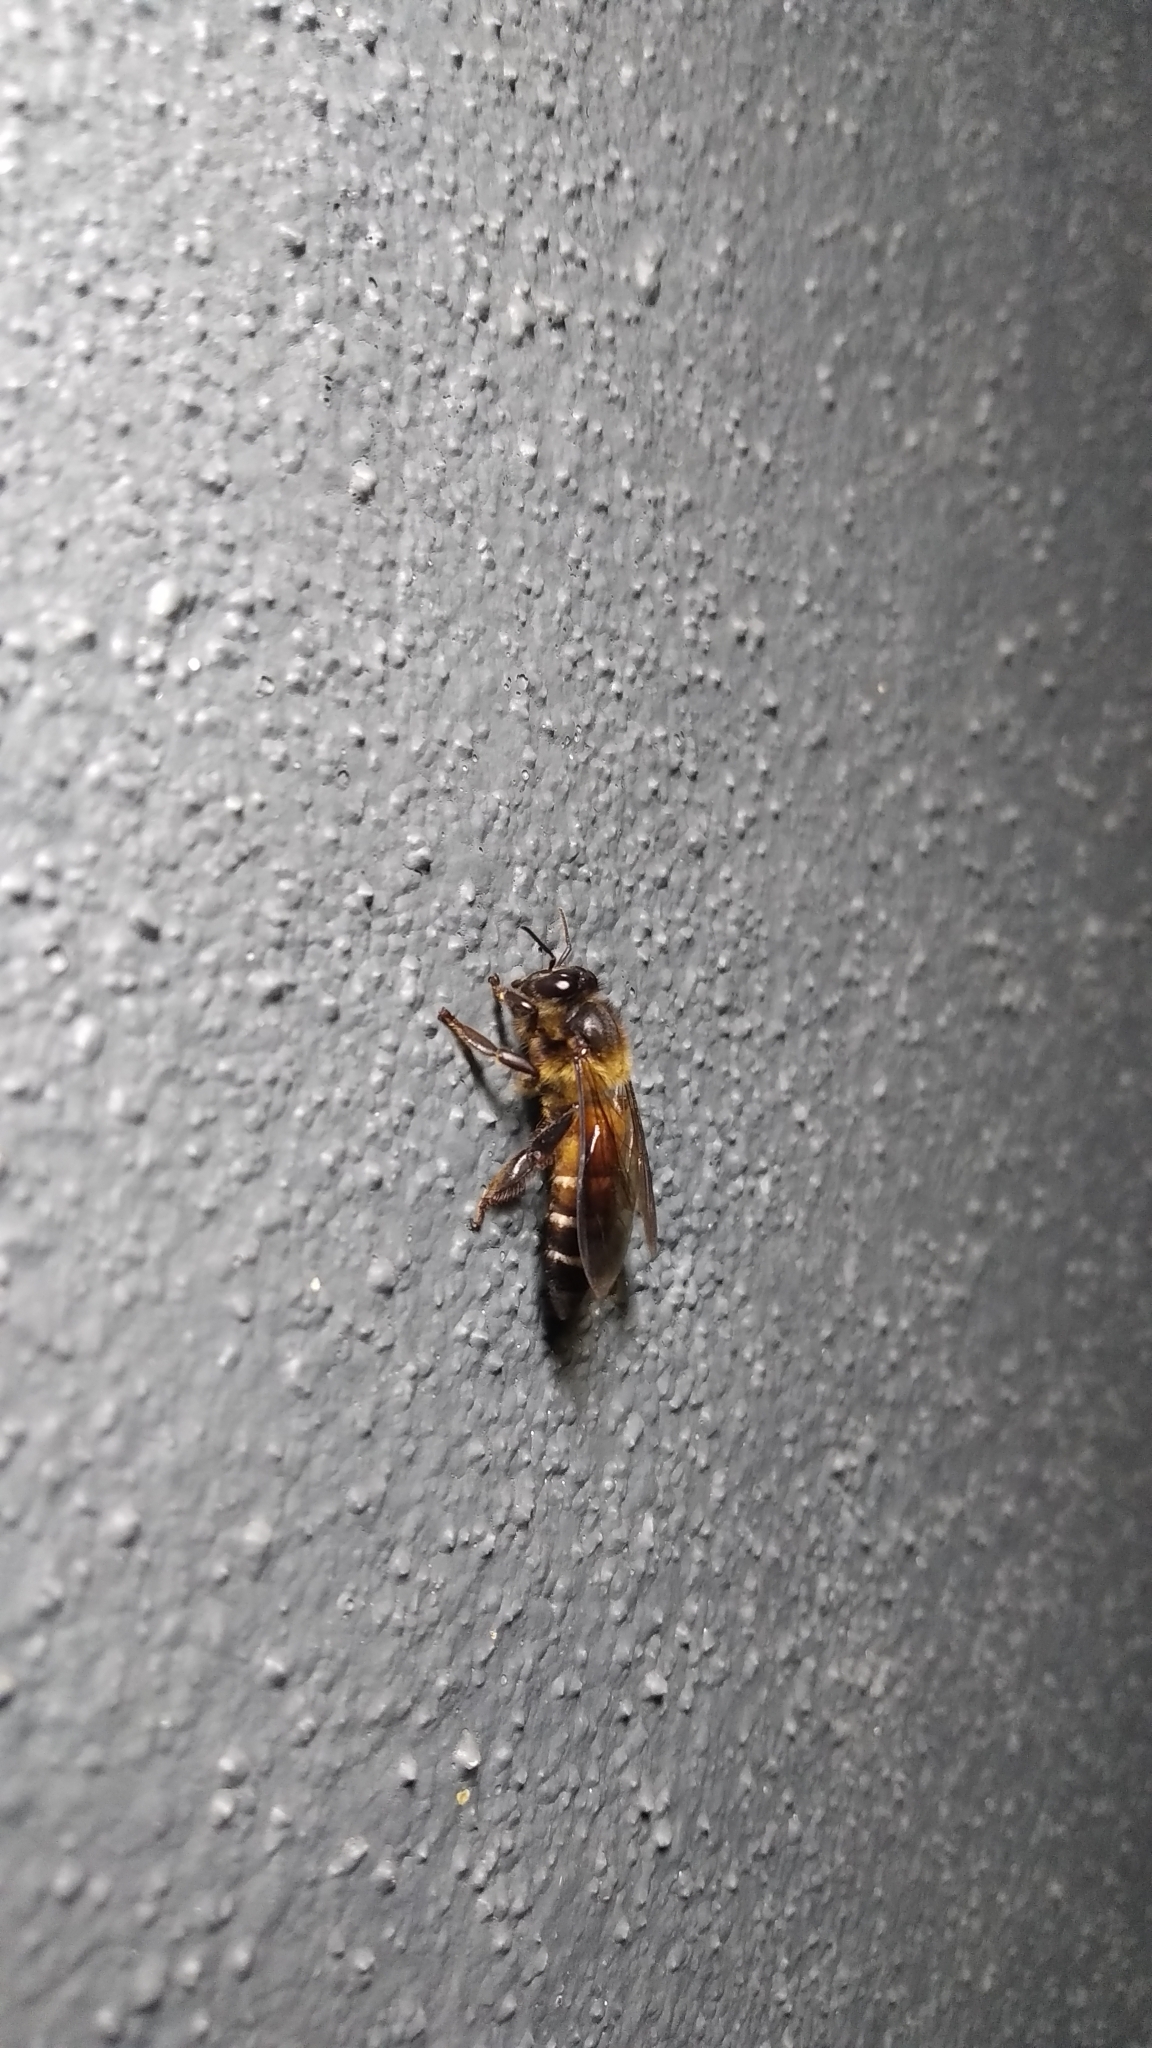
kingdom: Animalia
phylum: Arthropoda
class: Insecta
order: Hymenoptera
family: Apidae
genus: Apis
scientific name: Apis dorsata
